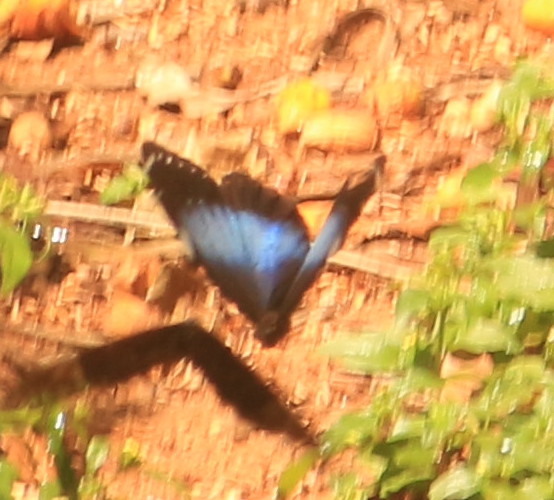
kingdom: Animalia
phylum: Arthropoda
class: Insecta
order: Lepidoptera
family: Nymphalidae
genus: Morpho
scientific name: Morpho helenor
